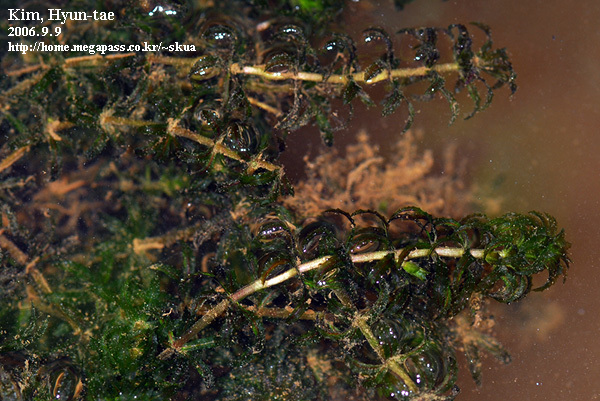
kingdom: Plantae
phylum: Tracheophyta
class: Liliopsida
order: Alismatales
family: Hydrocharitaceae
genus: Hydrilla
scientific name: Hydrilla verticillata
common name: Florida-elodea
